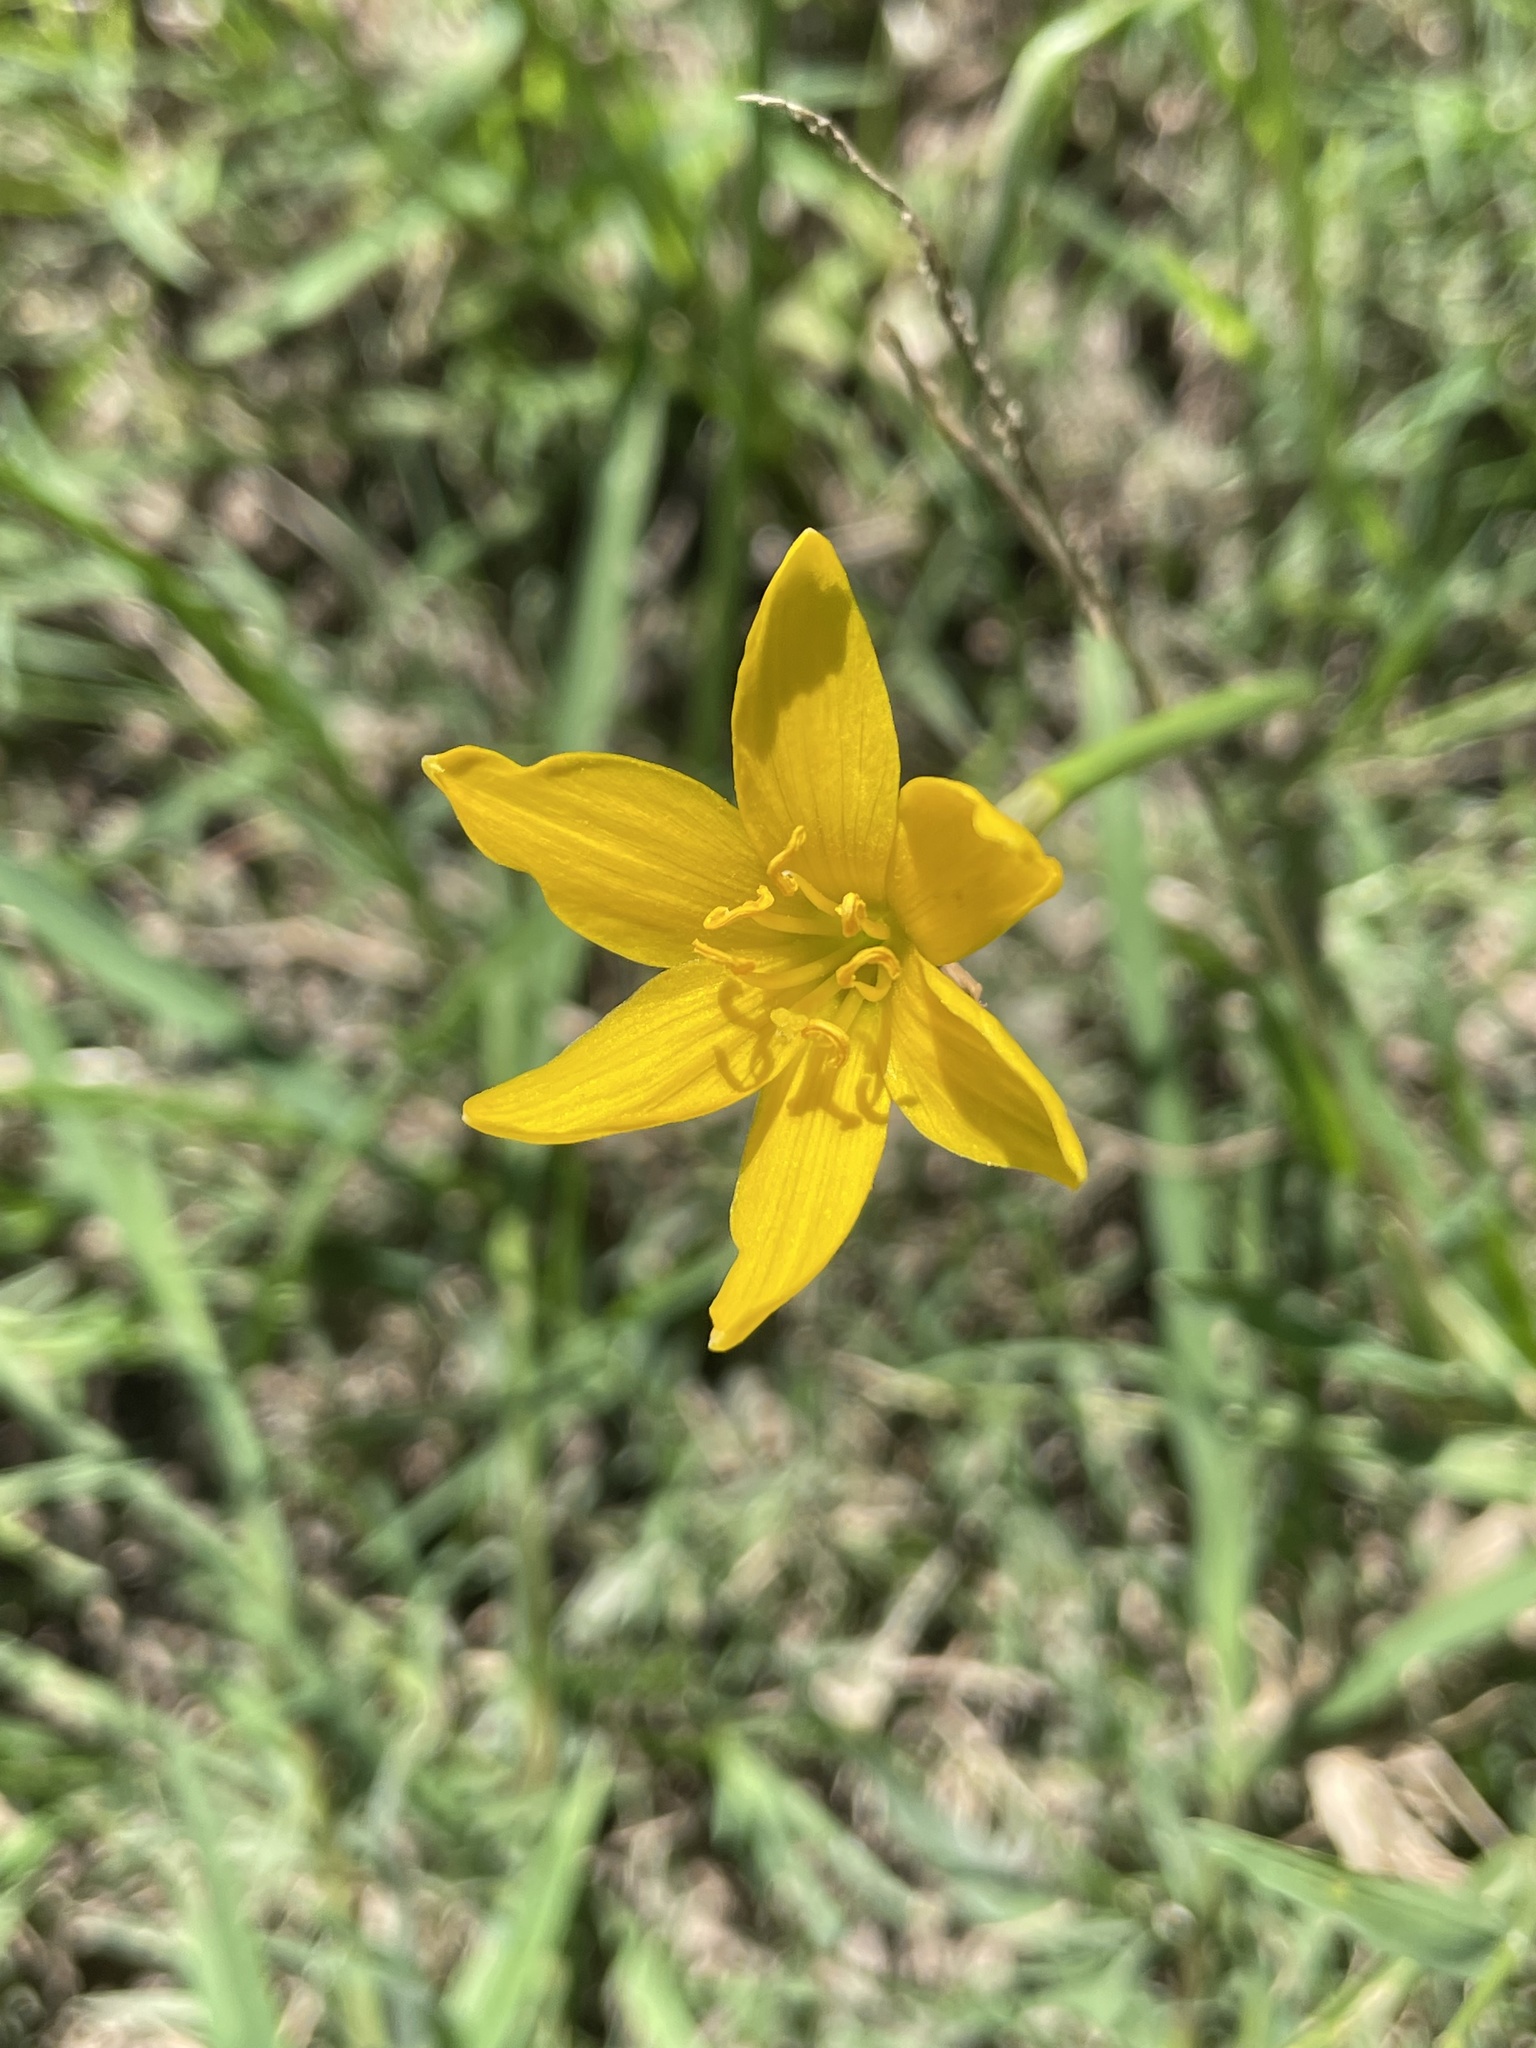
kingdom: Plantae
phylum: Tracheophyta
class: Liliopsida
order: Asparagales
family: Amaryllidaceae
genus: Zephyranthes
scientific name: Zephyranthes pulchella
